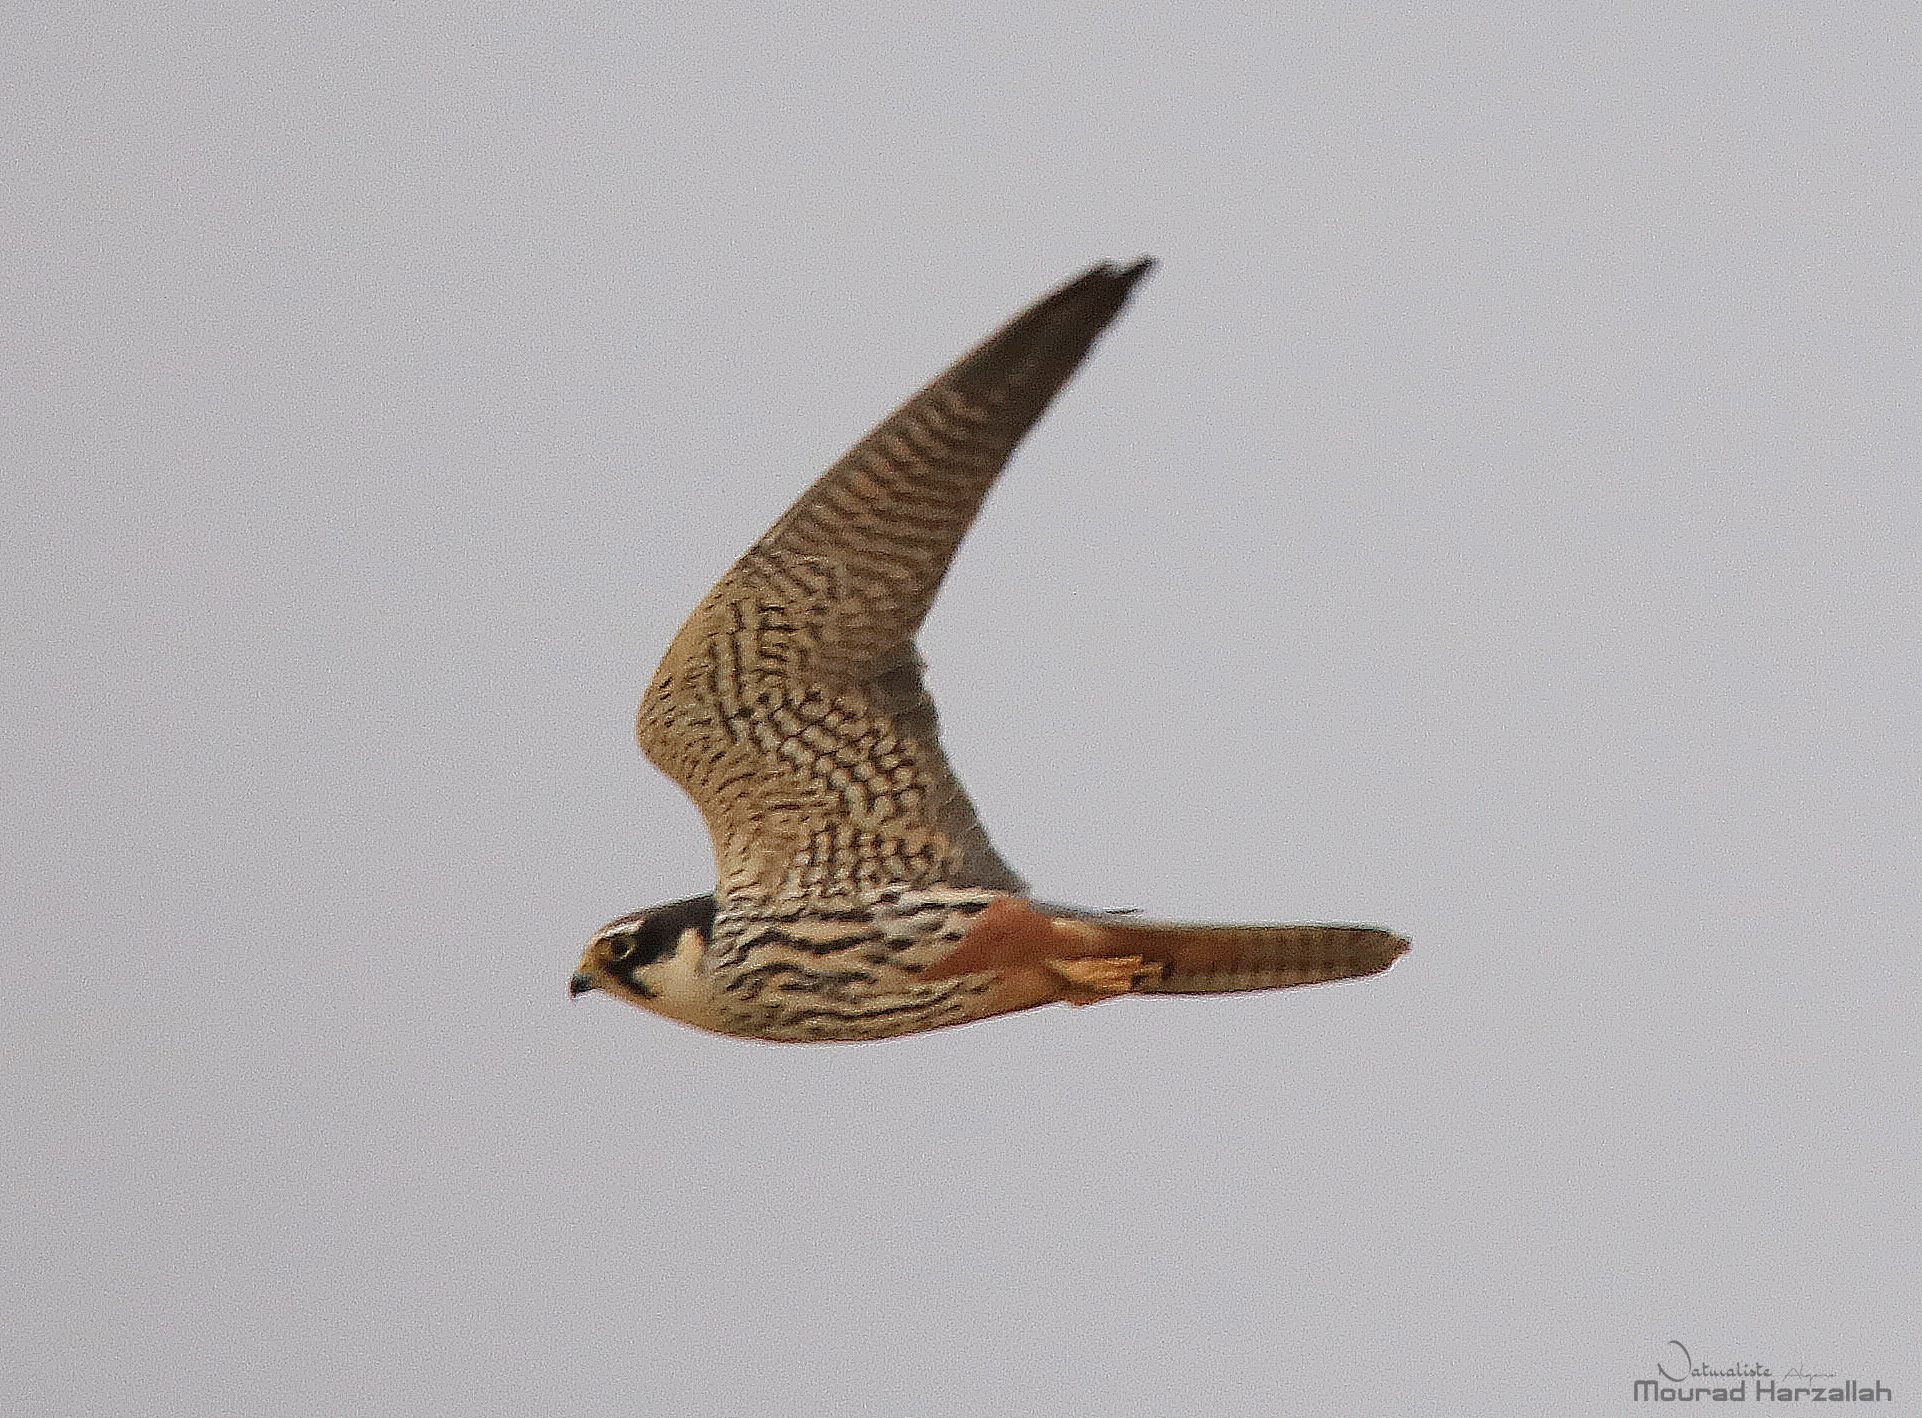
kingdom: Animalia
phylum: Chordata
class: Aves
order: Falconiformes
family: Falconidae
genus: Falco
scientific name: Falco subbuteo
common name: Eurasian hobby
